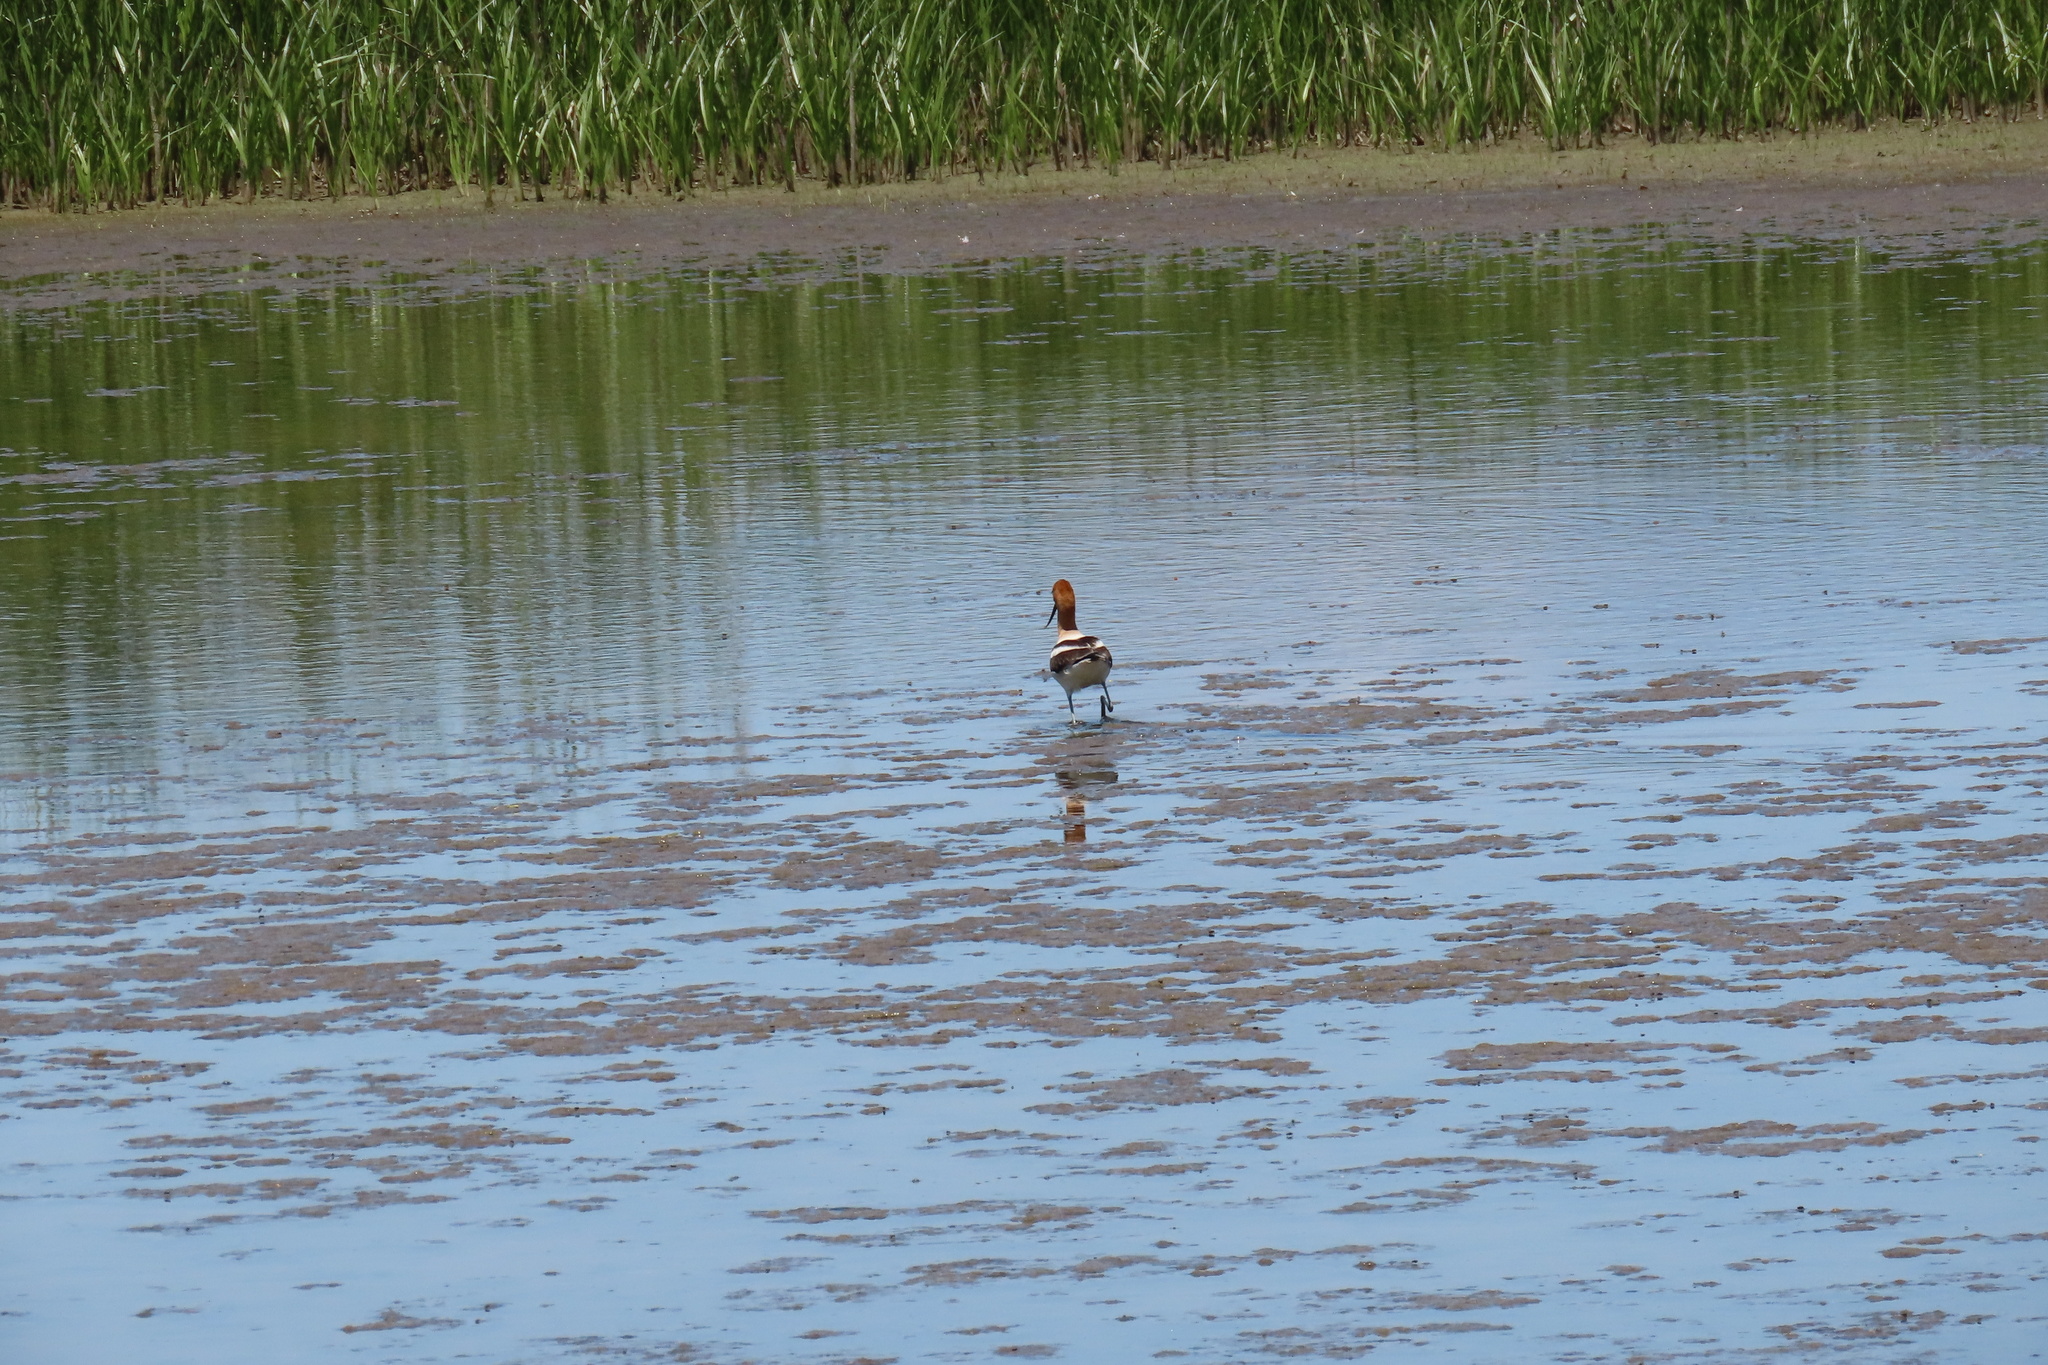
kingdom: Animalia
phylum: Chordata
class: Aves
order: Charadriiformes
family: Recurvirostridae
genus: Recurvirostra
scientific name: Recurvirostra americana
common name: American avocet
